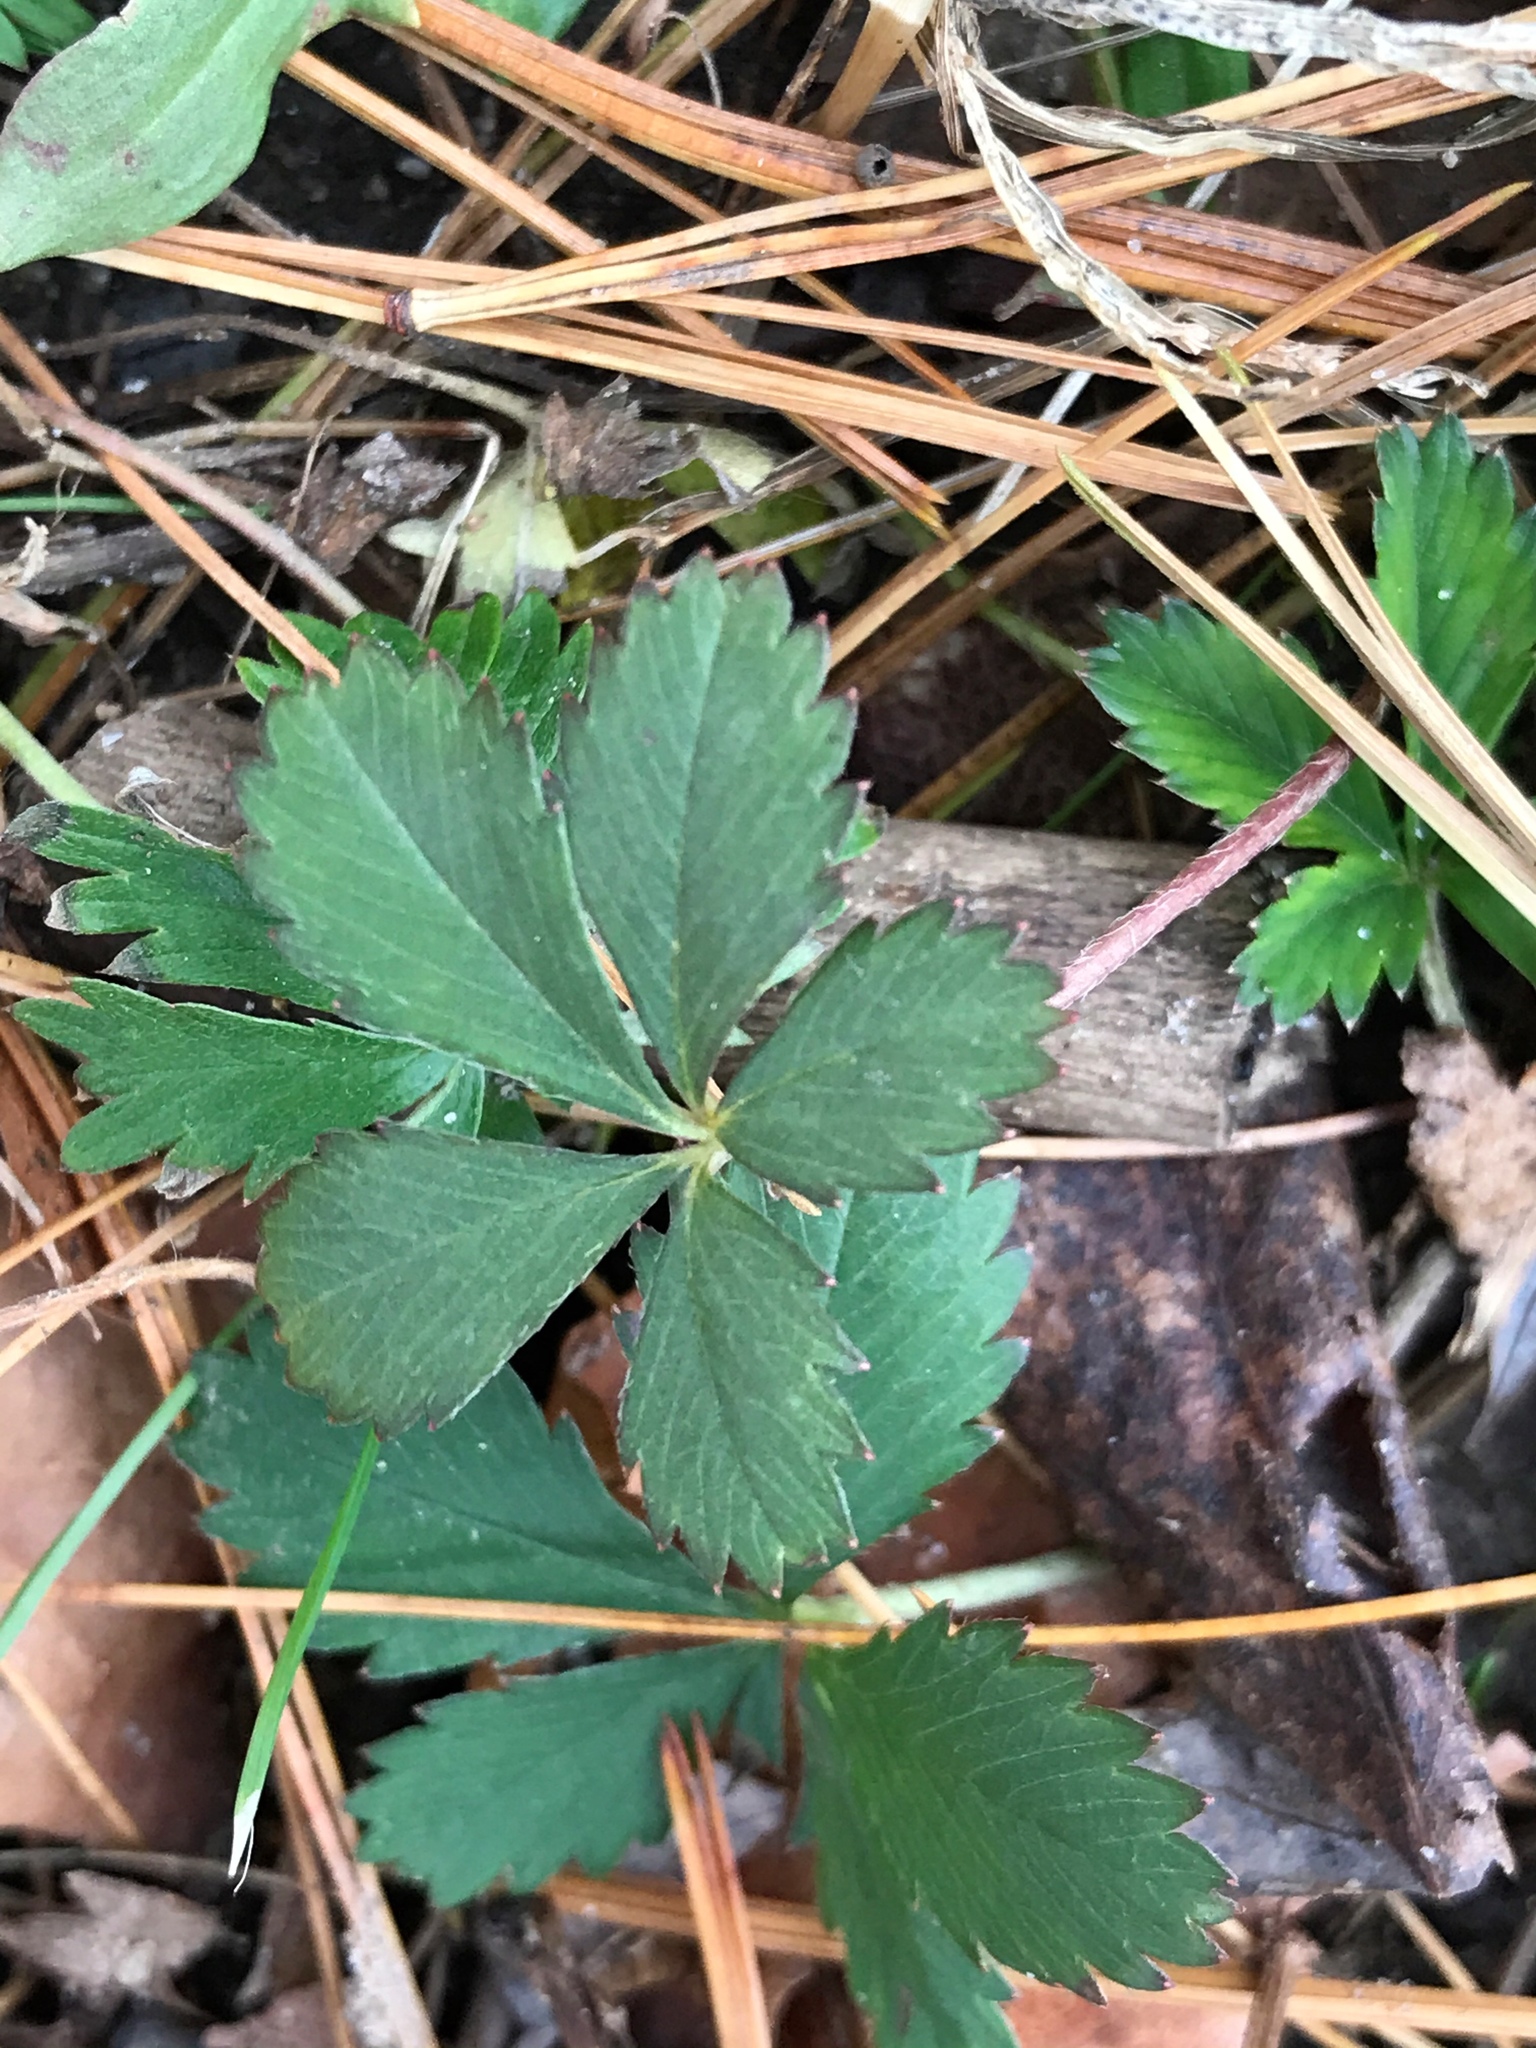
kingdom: Plantae
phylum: Tracheophyta
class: Magnoliopsida
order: Rosales
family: Rosaceae
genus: Potentilla
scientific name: Potentilla canadensis
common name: Canada cinquefoil
